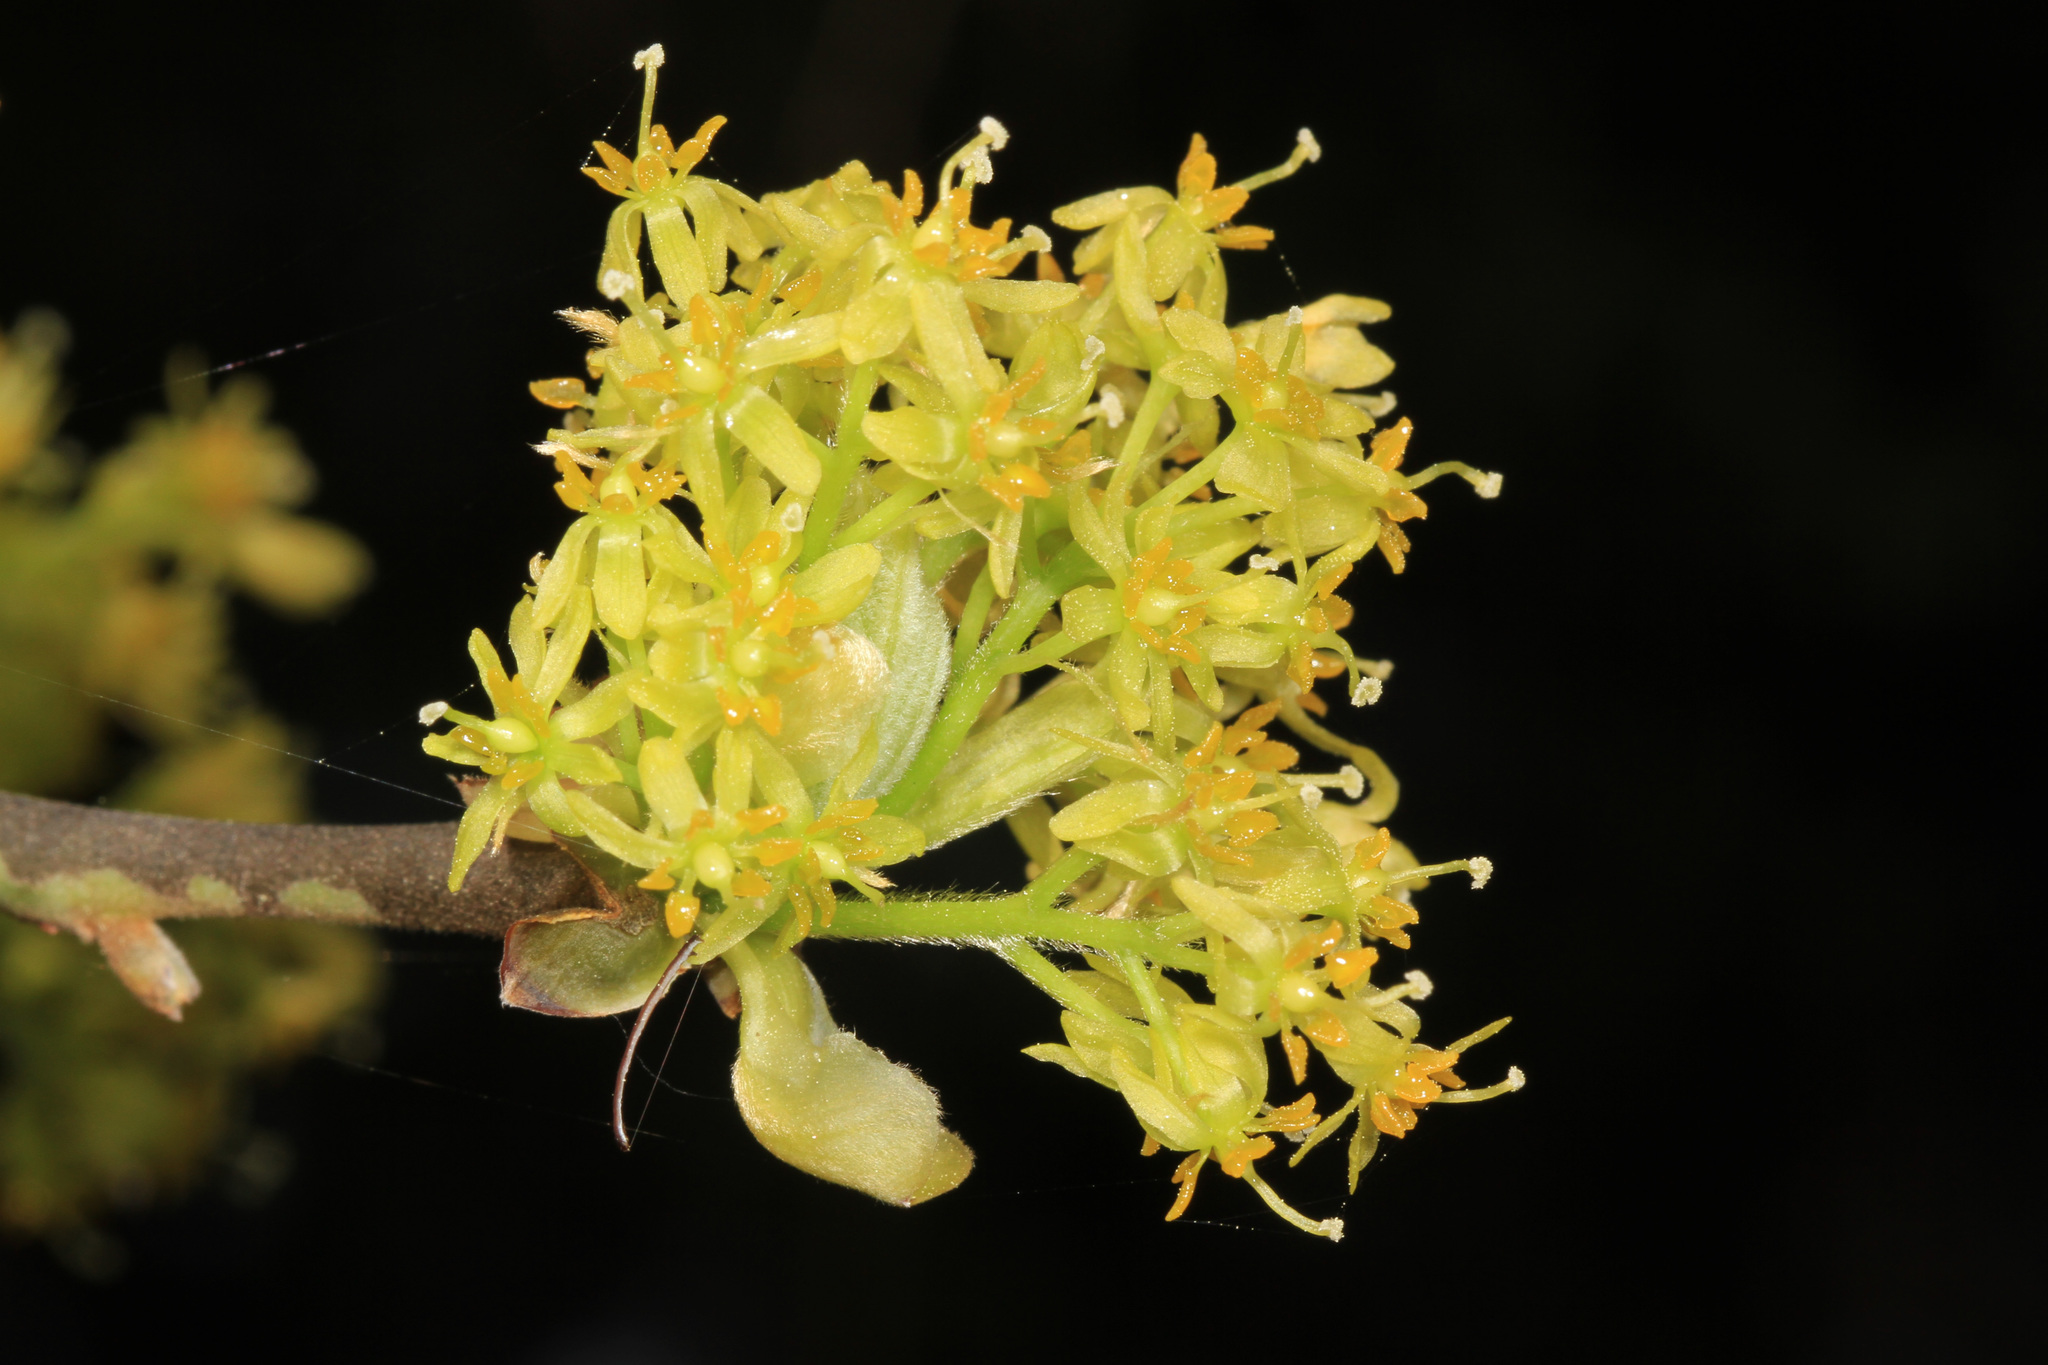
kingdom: Plantae
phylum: Tracheophyta
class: Magnoliopsida
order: Laurales
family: Lauraceae
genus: Sassafras
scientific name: Sassafras albidum
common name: Sassafras
